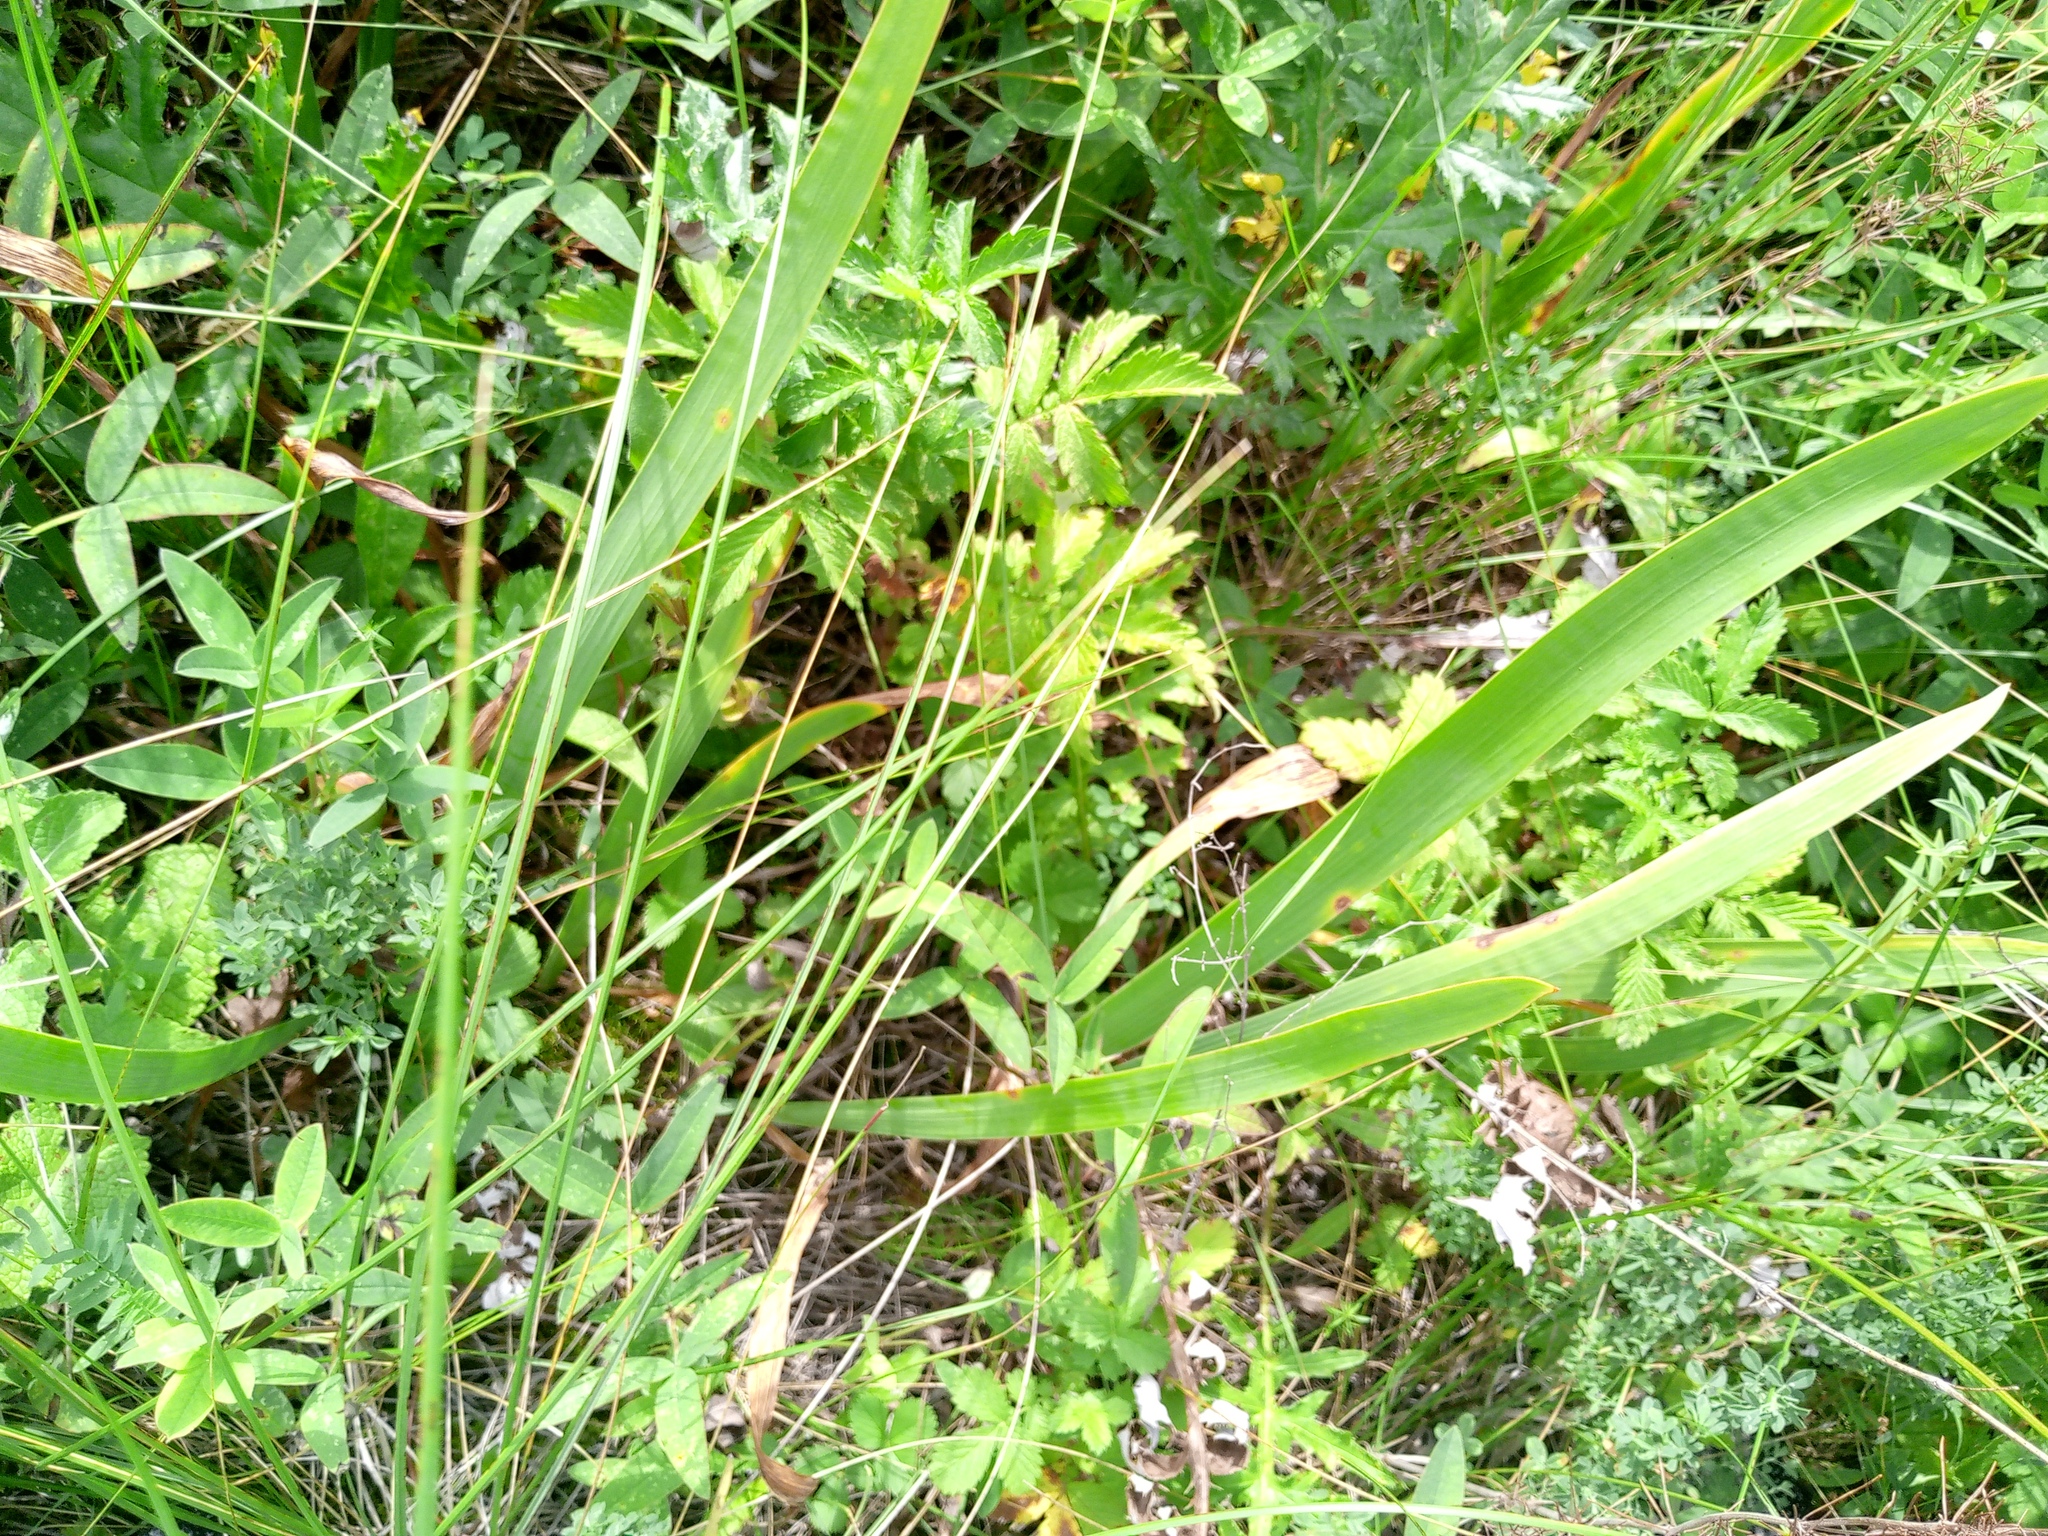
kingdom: Plantae
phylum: Tracheophyta
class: Liliopsida
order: Asparagales
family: Iridaceae
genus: Iris
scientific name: Iris aphylla
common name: Stool iris
